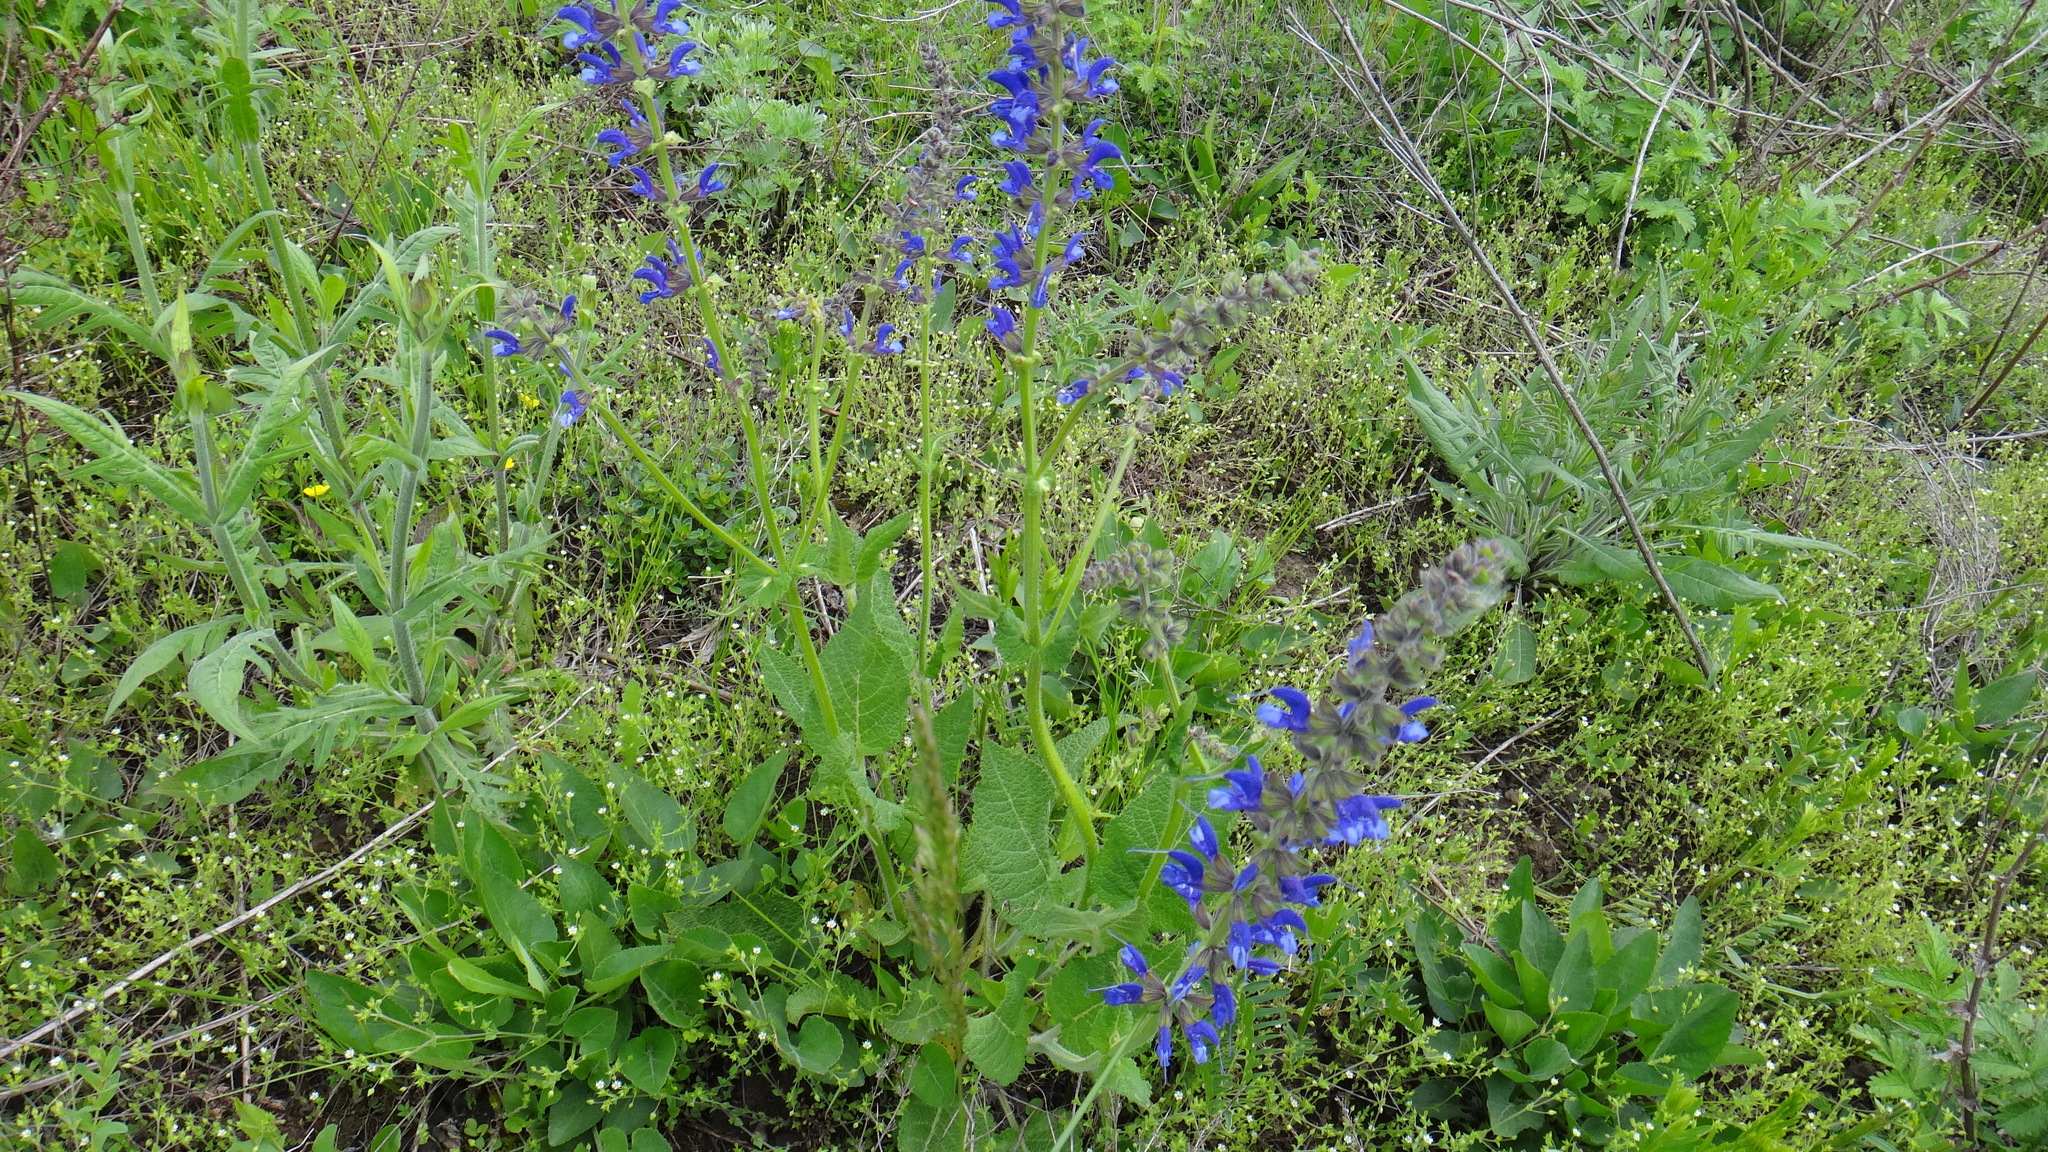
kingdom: Plantae
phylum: Tracheophyta
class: Magnoliopsida
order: Lamiales
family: Lamiaceae
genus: Salvia
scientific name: Salvia pratensis
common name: Meadow sage
